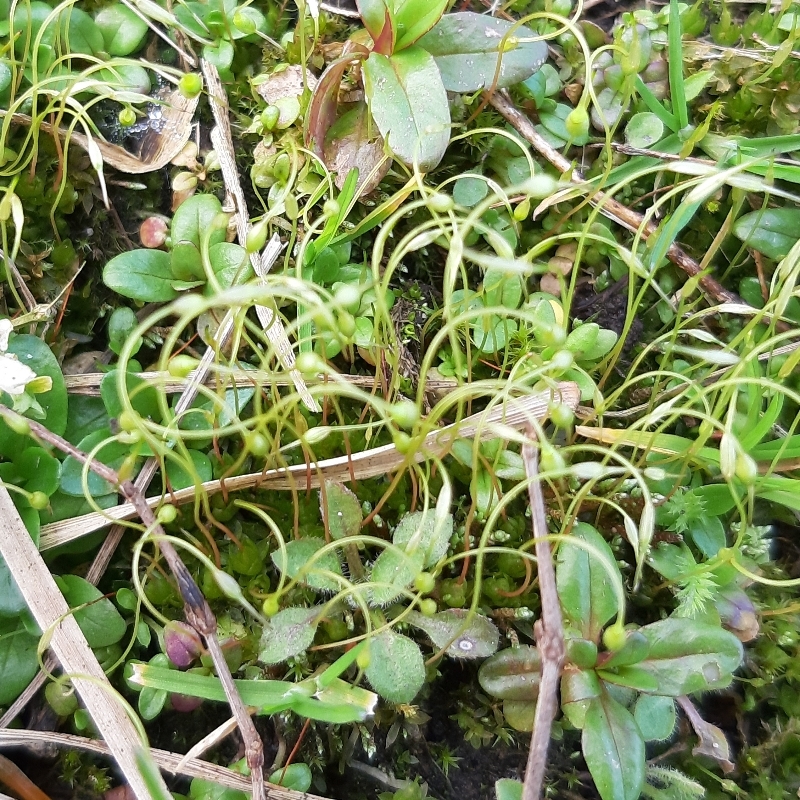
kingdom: Plantae
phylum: Bryophyta
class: Bryopsida
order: Funariales
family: Funariaceae
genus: Funaria
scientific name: Funaria hygrometrica
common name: Common cord moss
